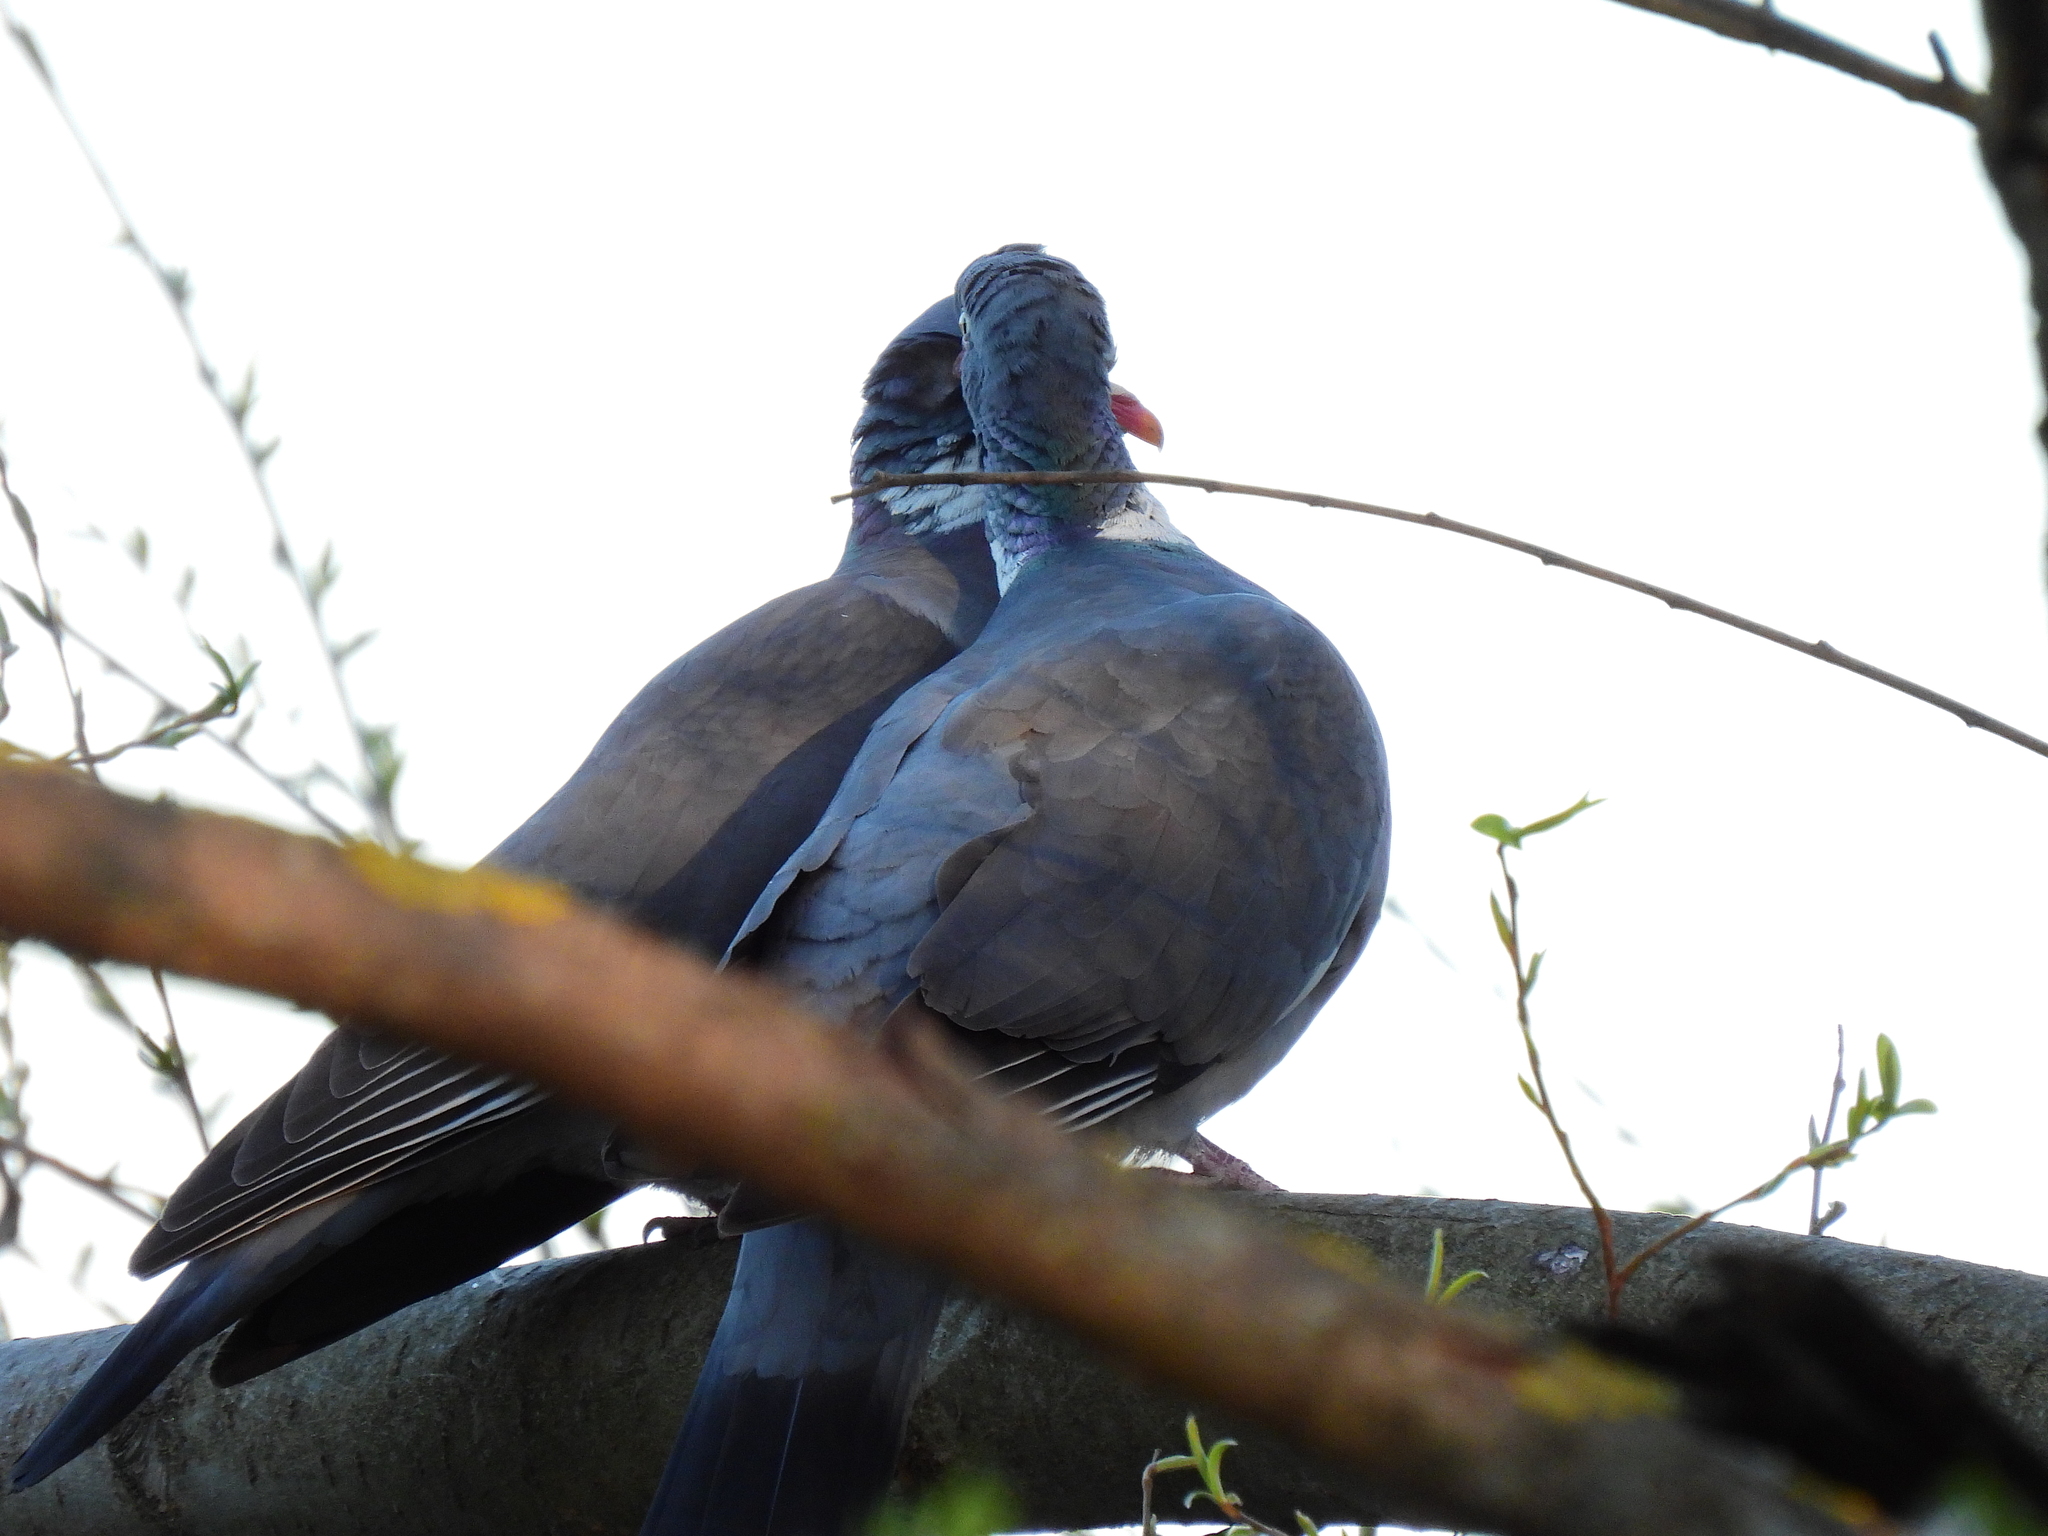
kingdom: Animalia
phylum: Chordata
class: Aves
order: Columbiformes
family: Columbidae
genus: Columba
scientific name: Columba palumbus
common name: Common wood pigeon
